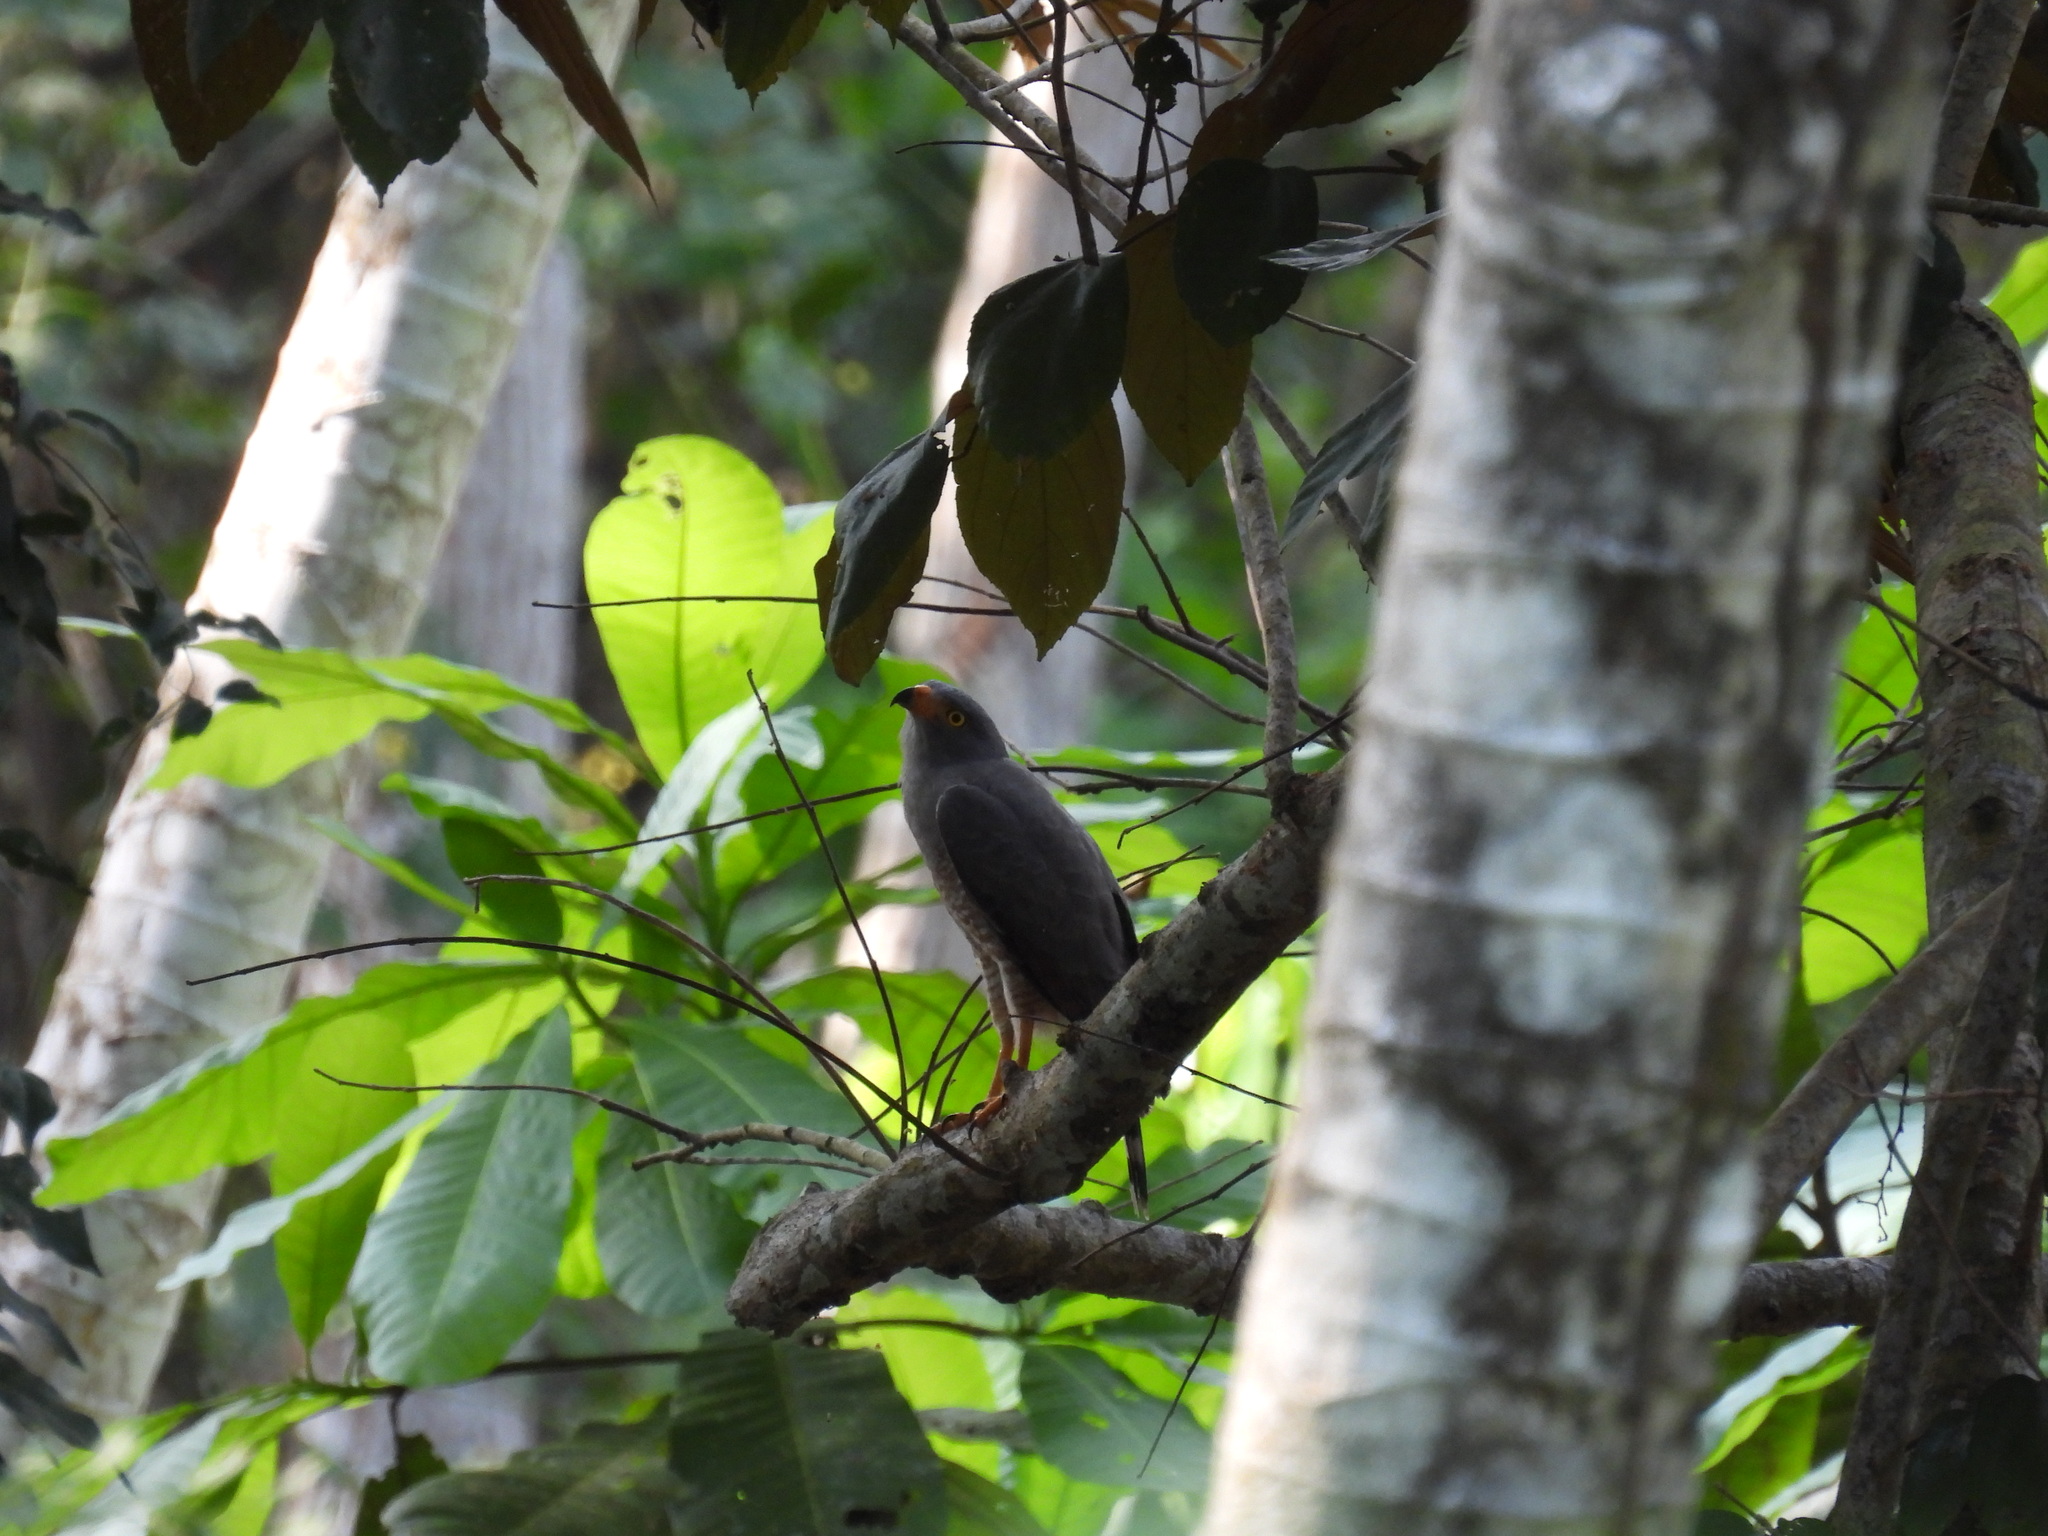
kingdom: Animalia
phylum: Chordata
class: Aves
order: Accipitriformes
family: Accipitridae
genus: Rupornis
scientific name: Rupornis magnirostris
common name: Roadside hawk
